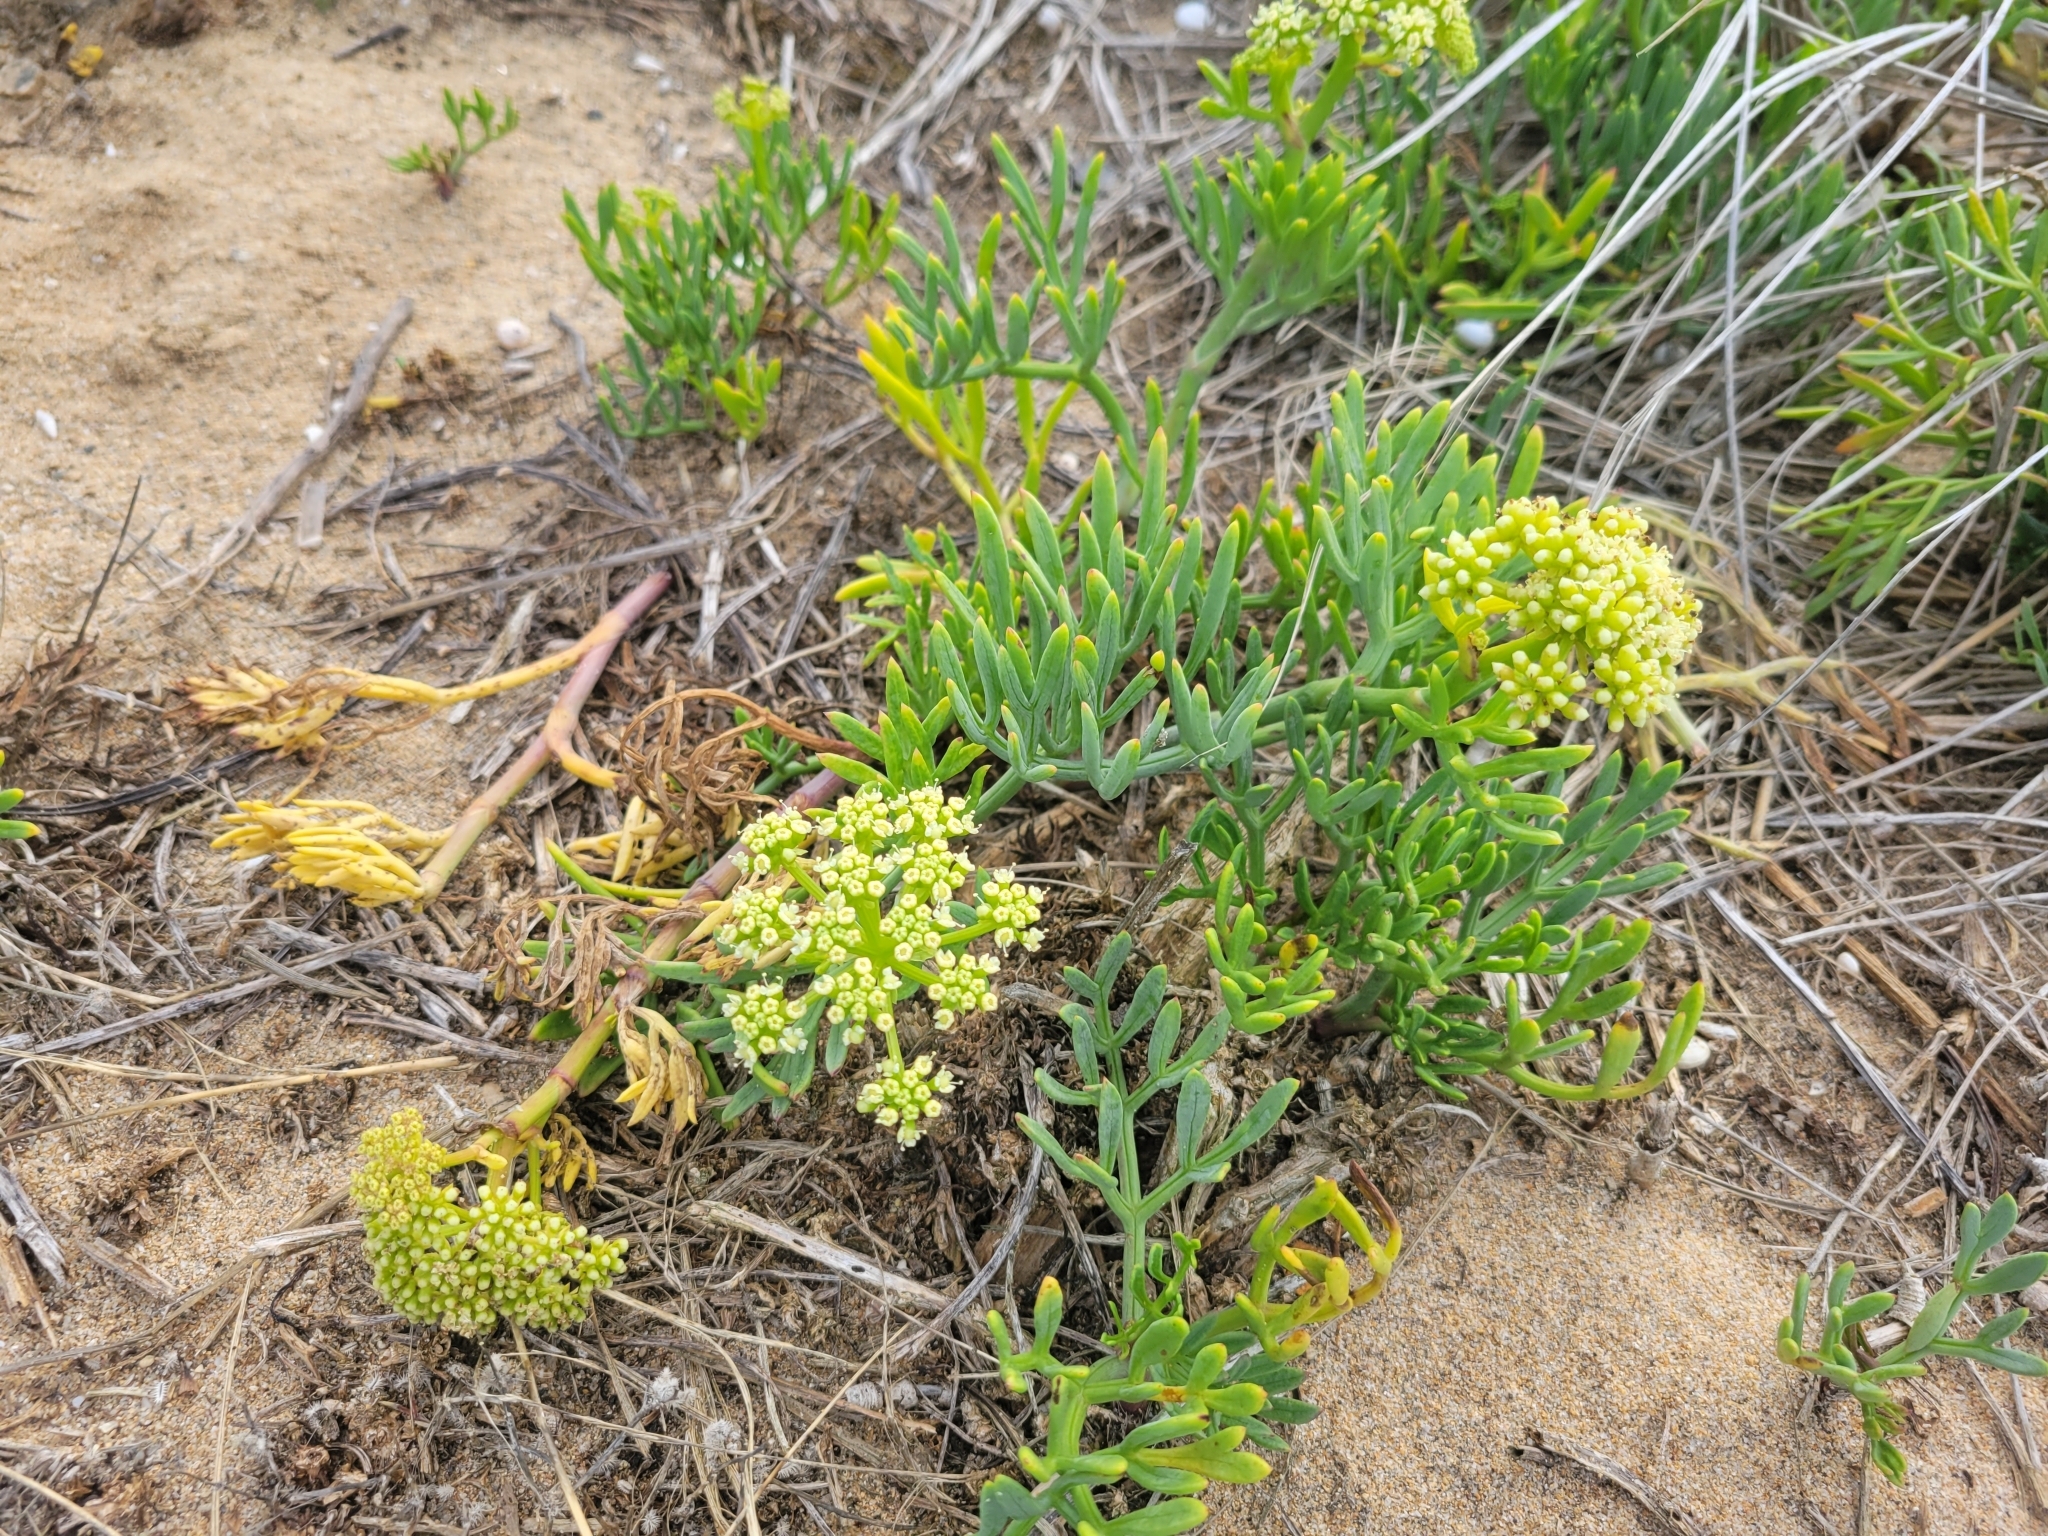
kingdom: Plantae
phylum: Tracheophyta
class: Magnoliopsida
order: Apiales
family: Apiaceae
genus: Crithmum
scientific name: Crithmum maritimum
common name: Rock samphire
